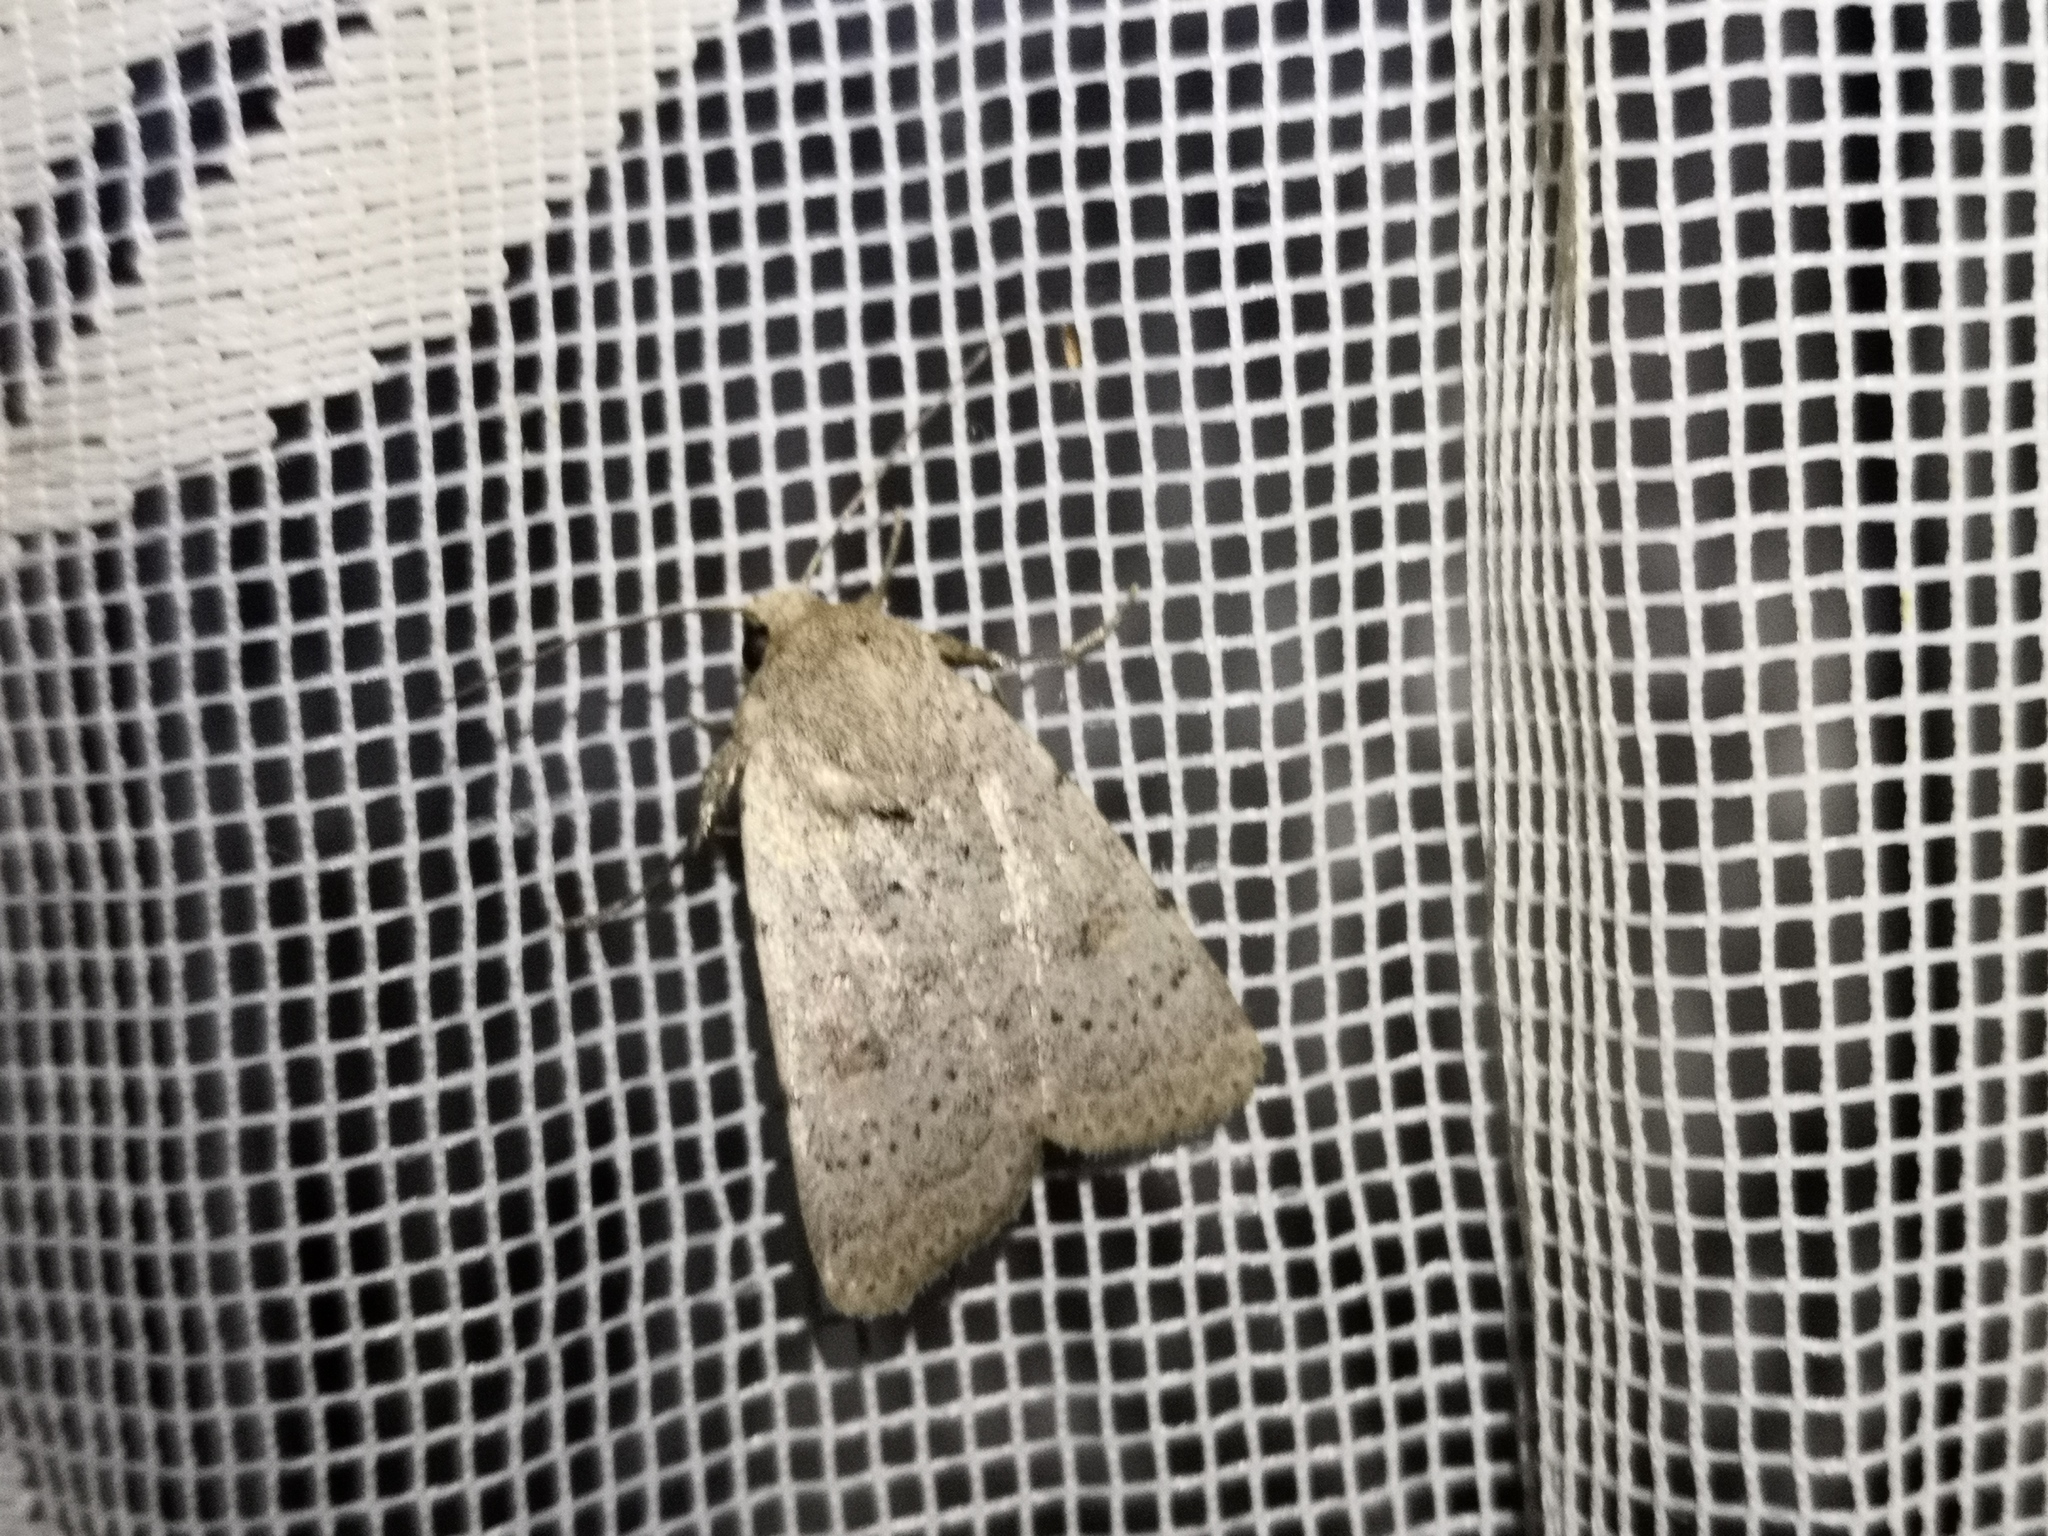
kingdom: Animalia
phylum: Arthropoda
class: Insecta
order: Lepidoptera
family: Noctuidae
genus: Hoplodrina
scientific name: Hoplodrina respersa
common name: Sprinkled rustic
